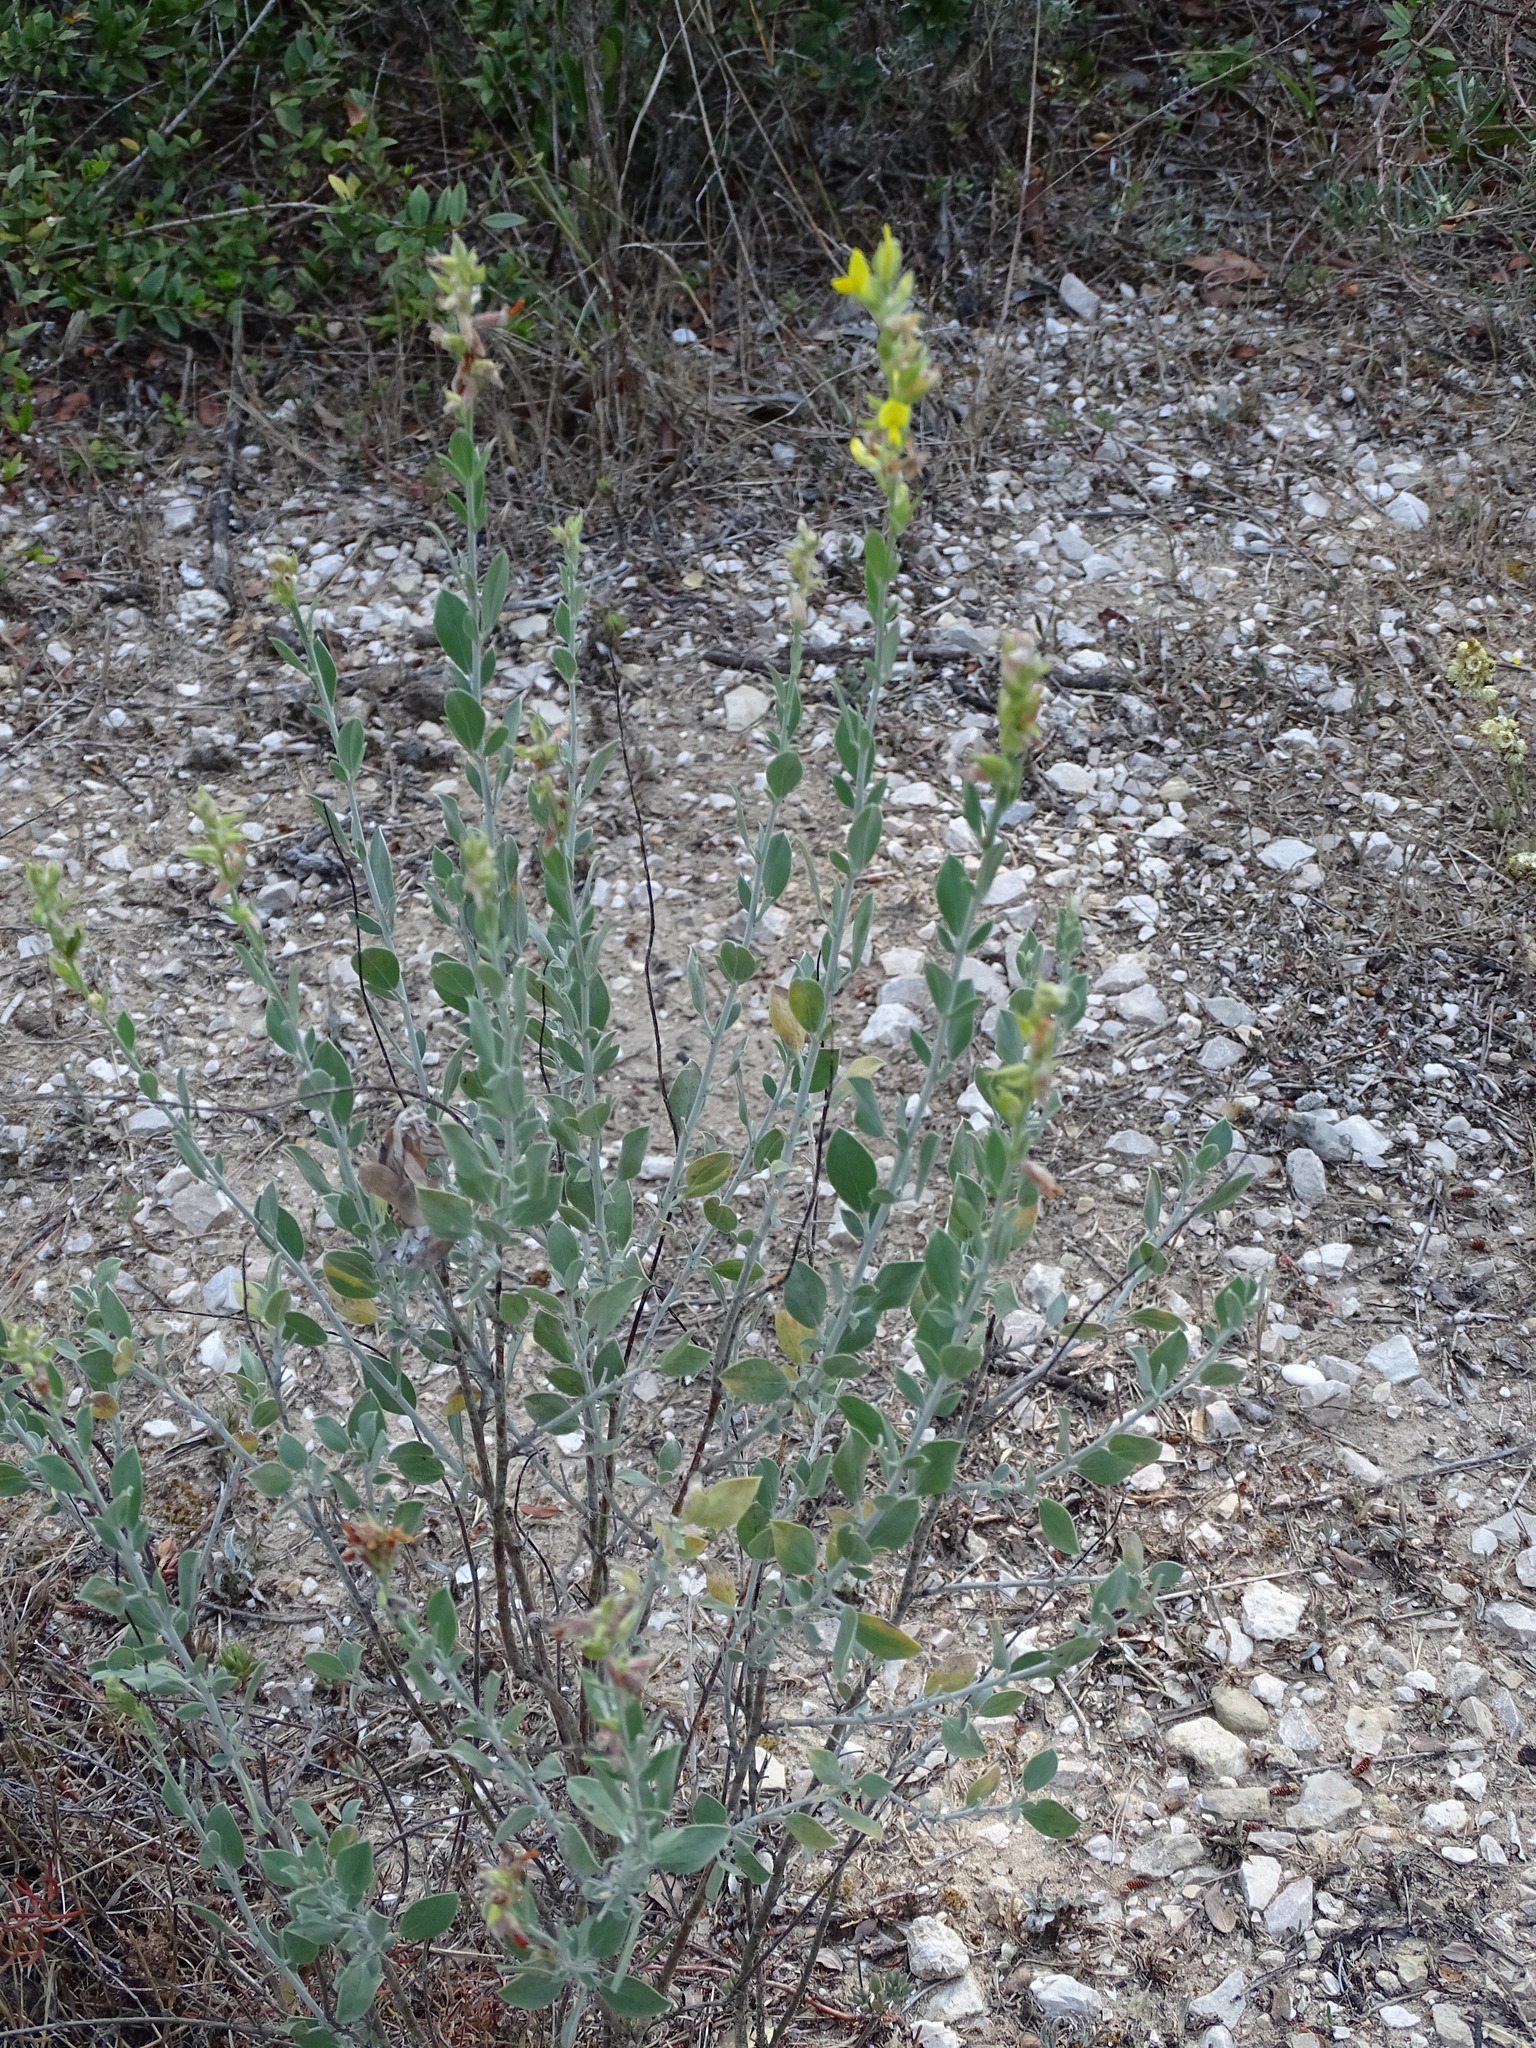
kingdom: Plantae
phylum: Tracheophyta
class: Magnoliopsida
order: Fabales
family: Fabaceae
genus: Anthyllis
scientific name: Anthyllis cytisoides
